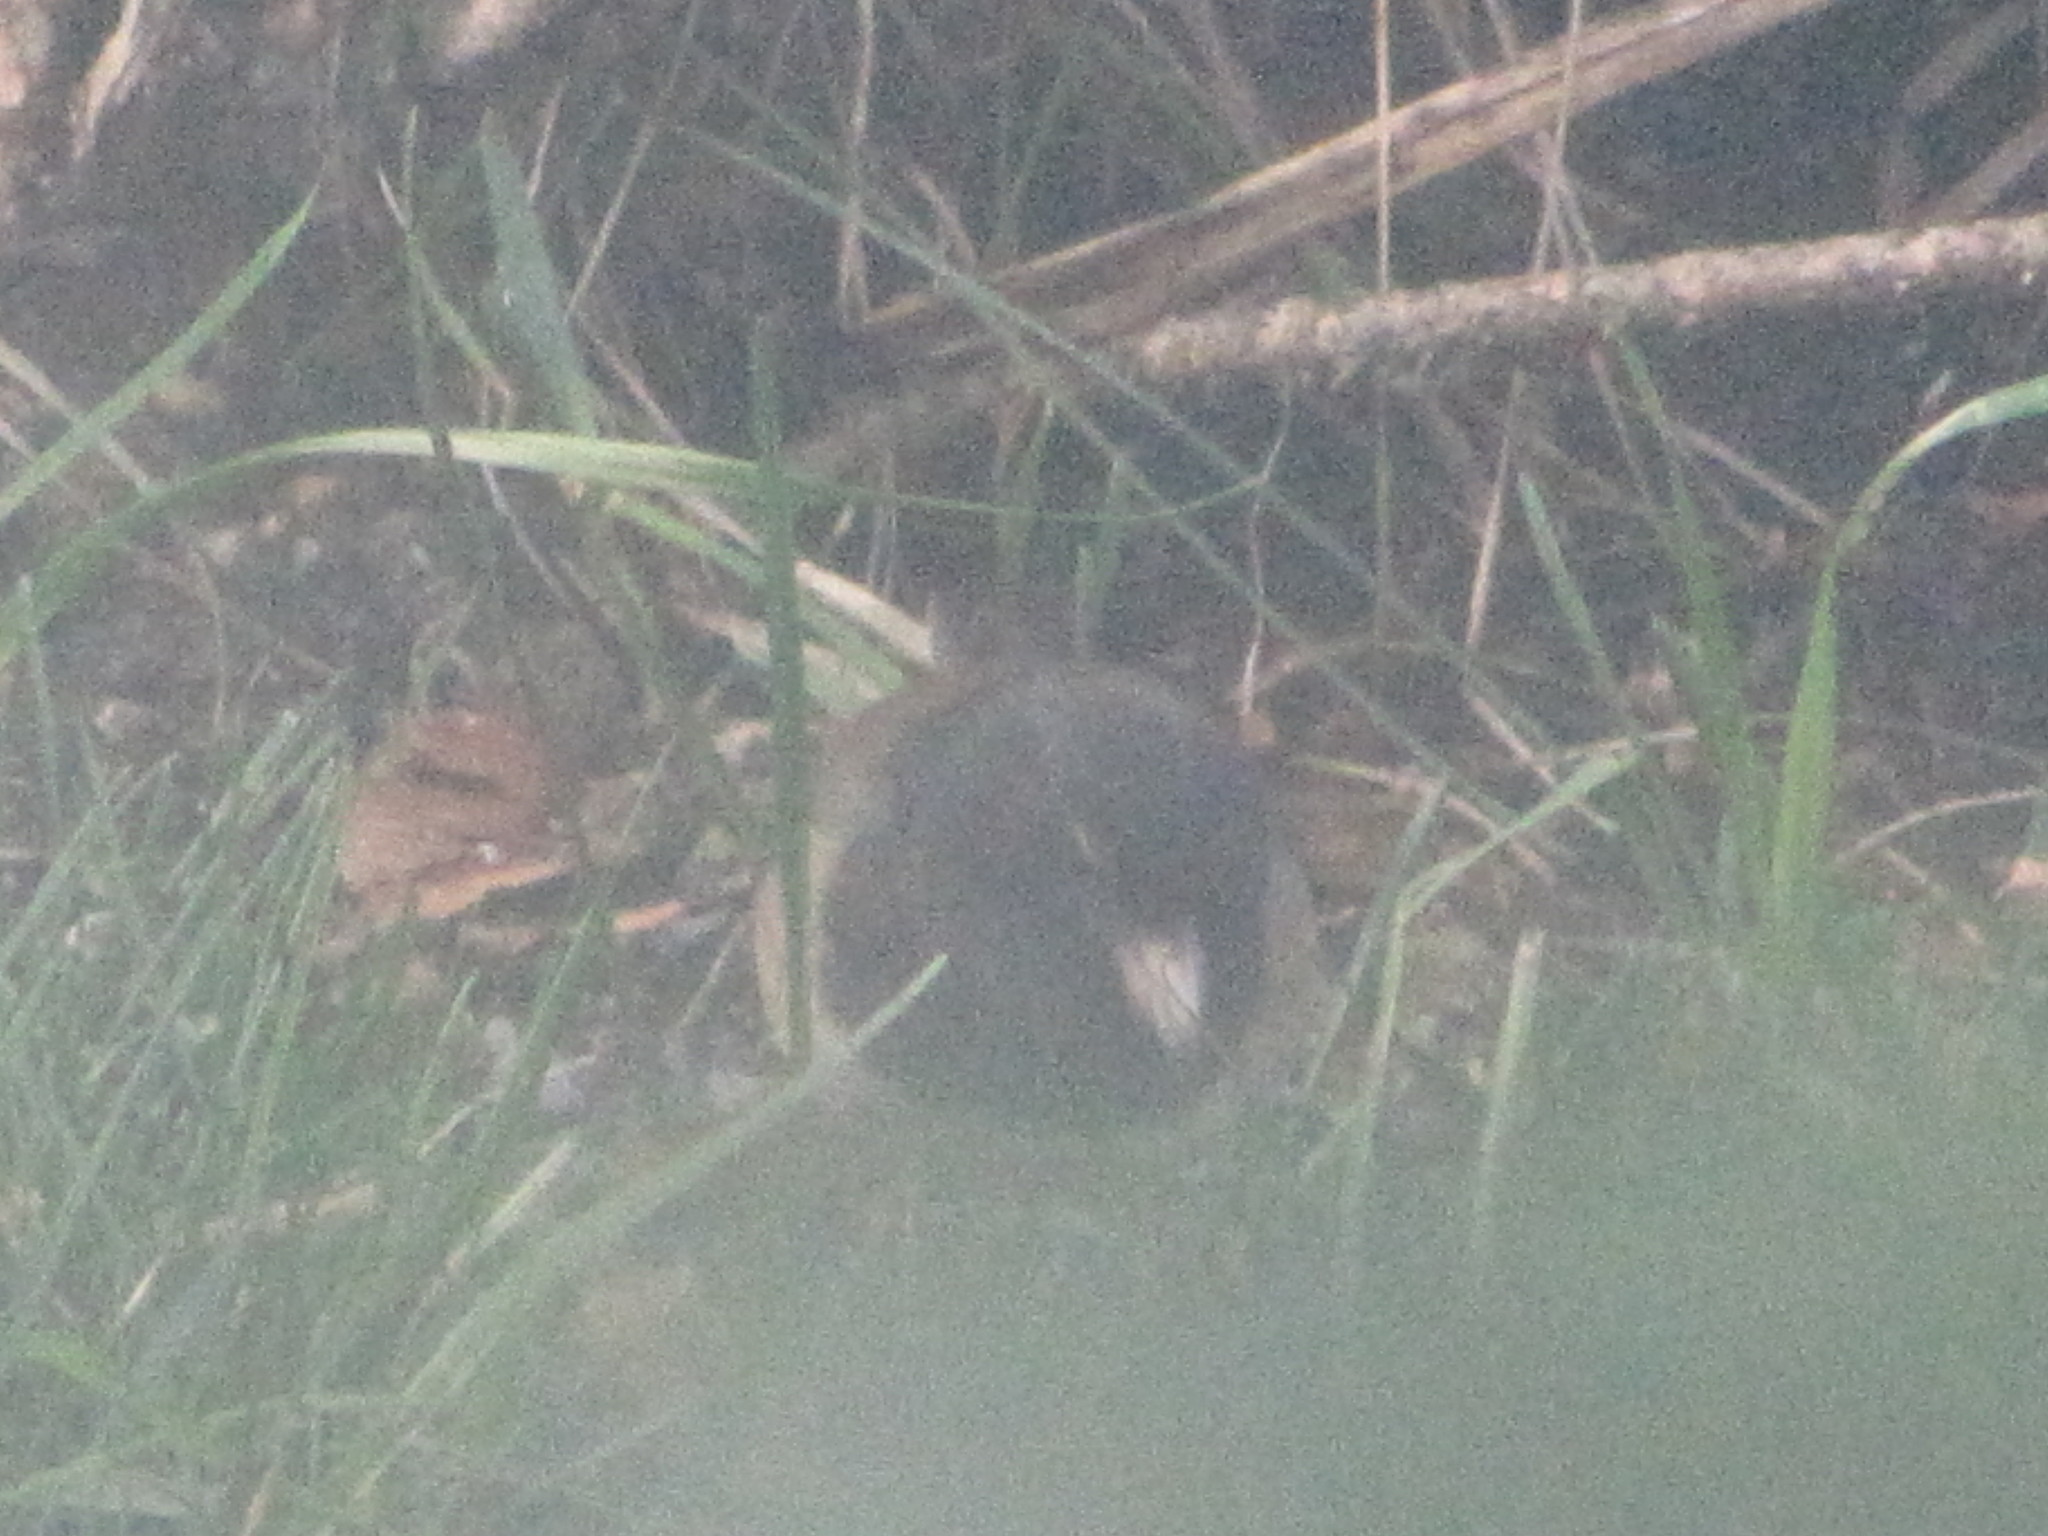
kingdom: Animalia
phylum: Chordata
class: Aves
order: Passeriformes
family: Passerellidae
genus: Junco
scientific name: Junco hyemalis
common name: Dark-eyed junco
